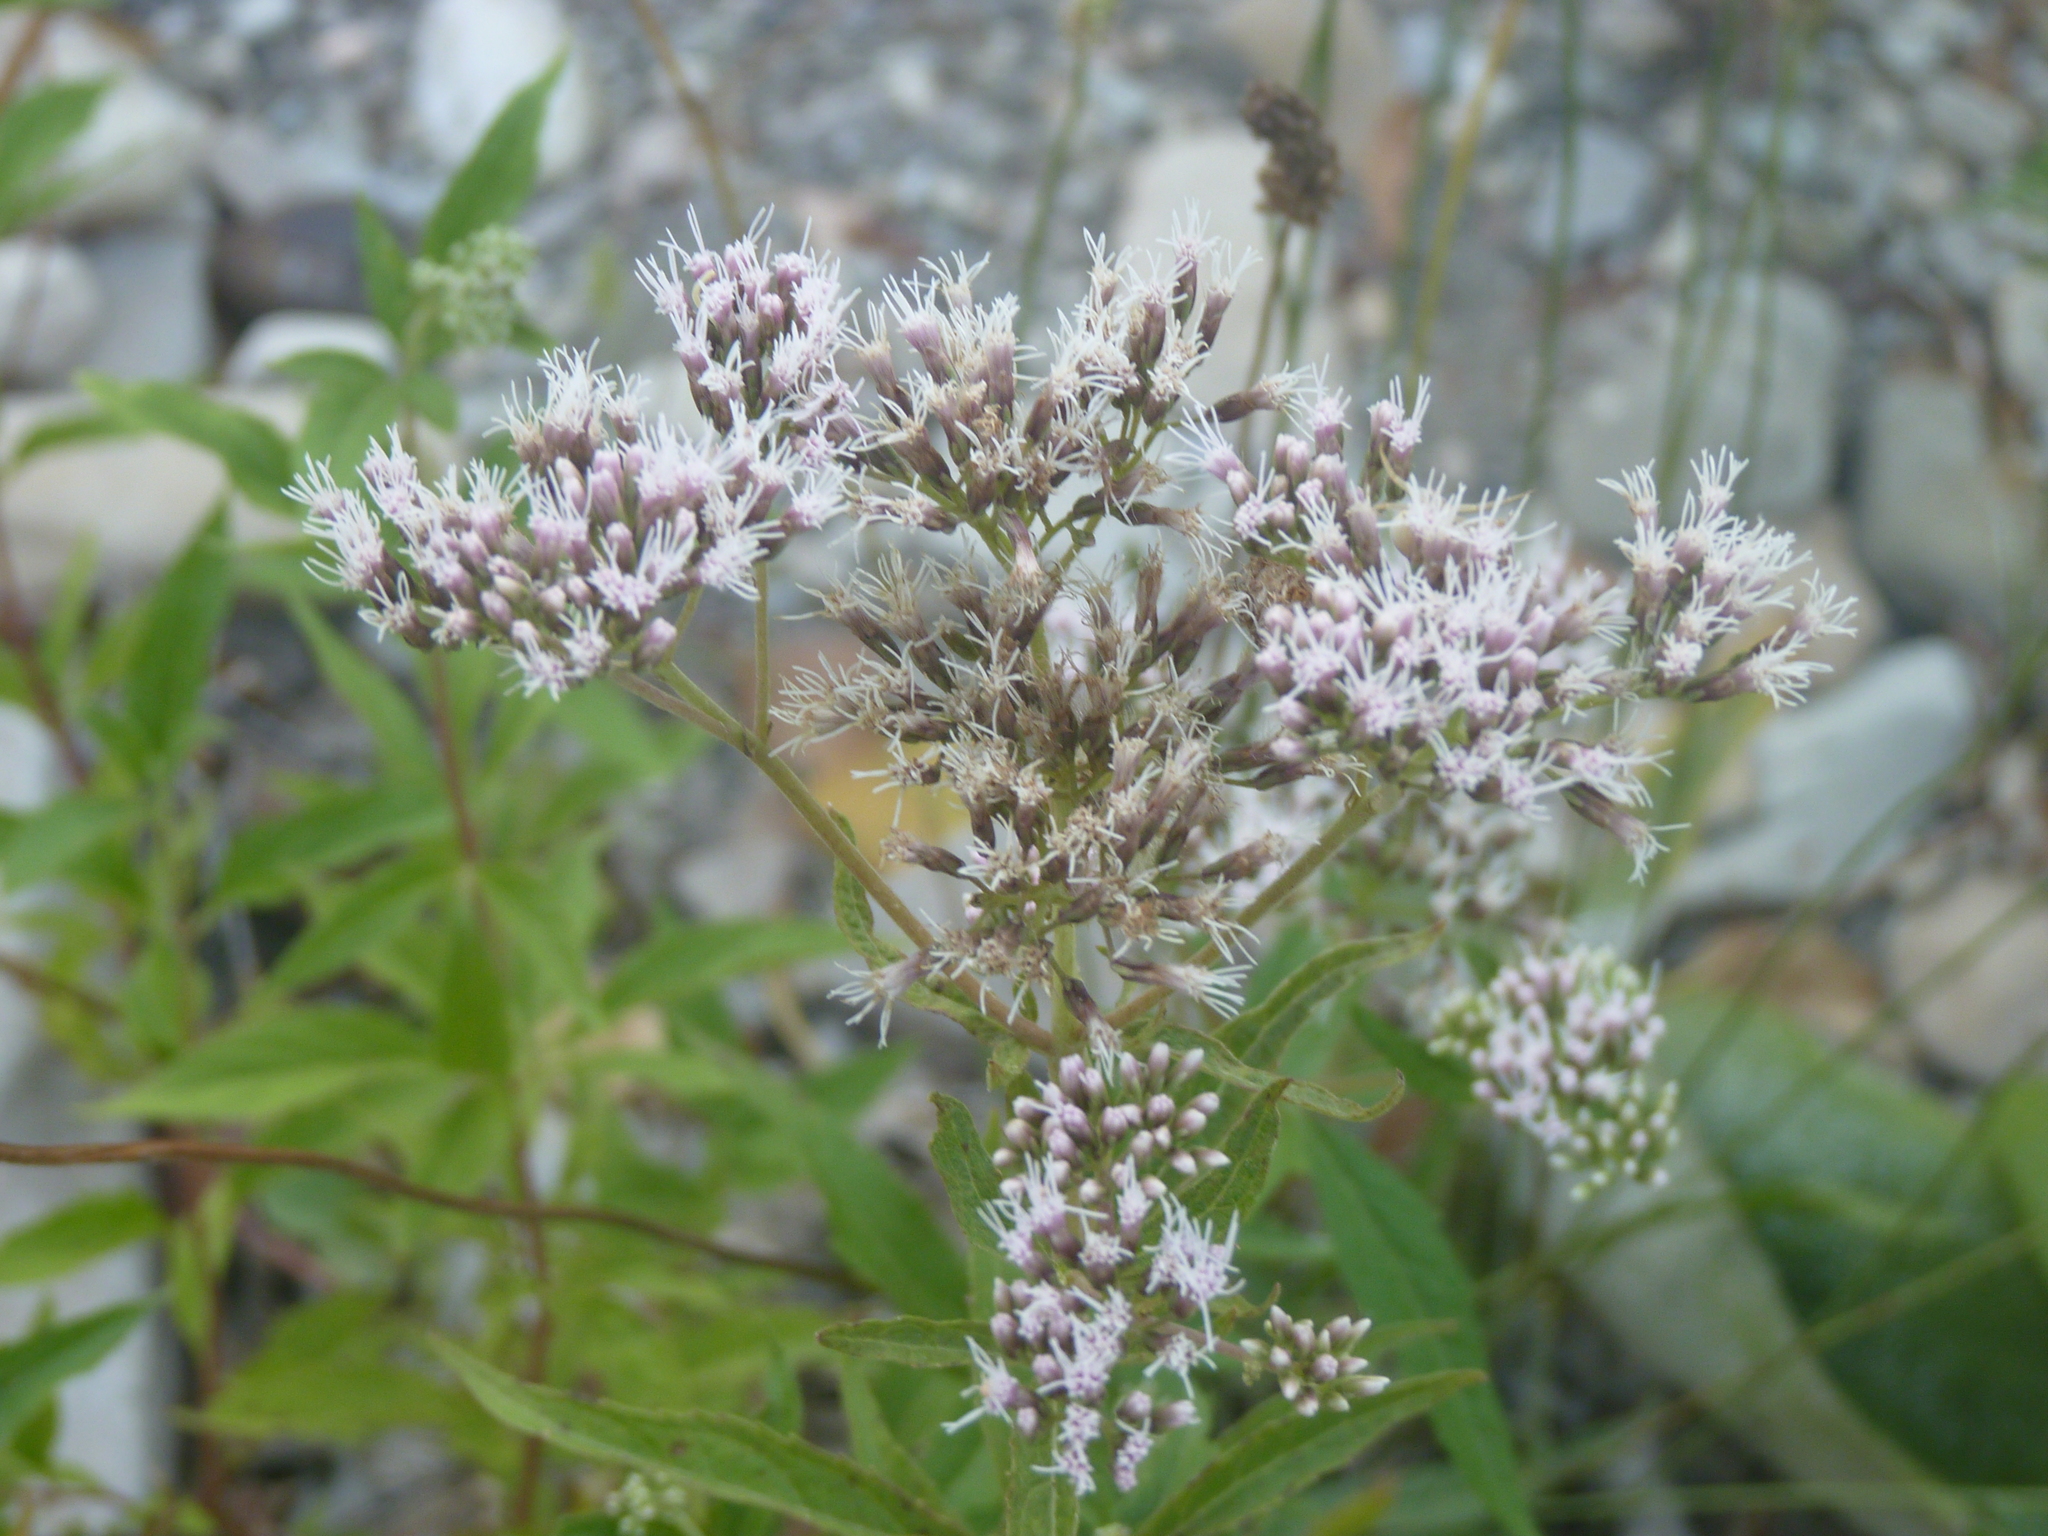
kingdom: Plantae
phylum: Tracheophyta
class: Magnoliopsida
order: Asterales
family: Asteraceae
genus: Eupatorium
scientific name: Eupatorium cannabinum
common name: Hemp-agrimony
